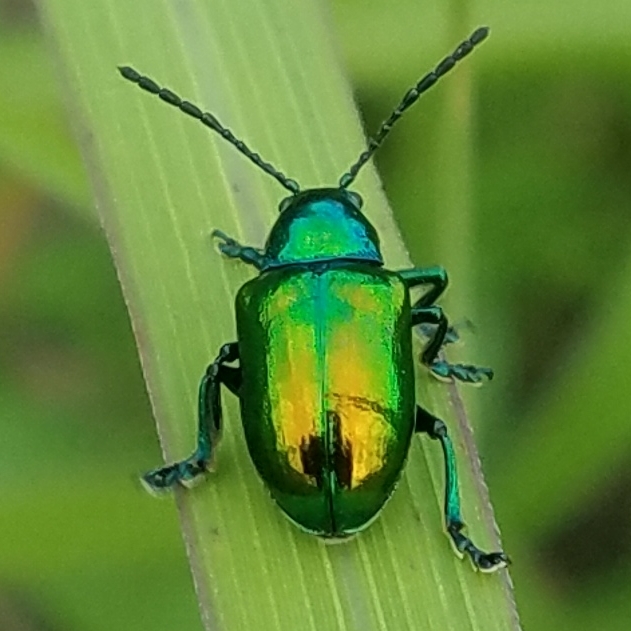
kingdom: Animalia
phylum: Arthropoda
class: Insecta
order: Coleoptera
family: Chrysomelidae
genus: Chrysochus
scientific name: Chrysochus auratus
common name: Dogbane leaf beetle
